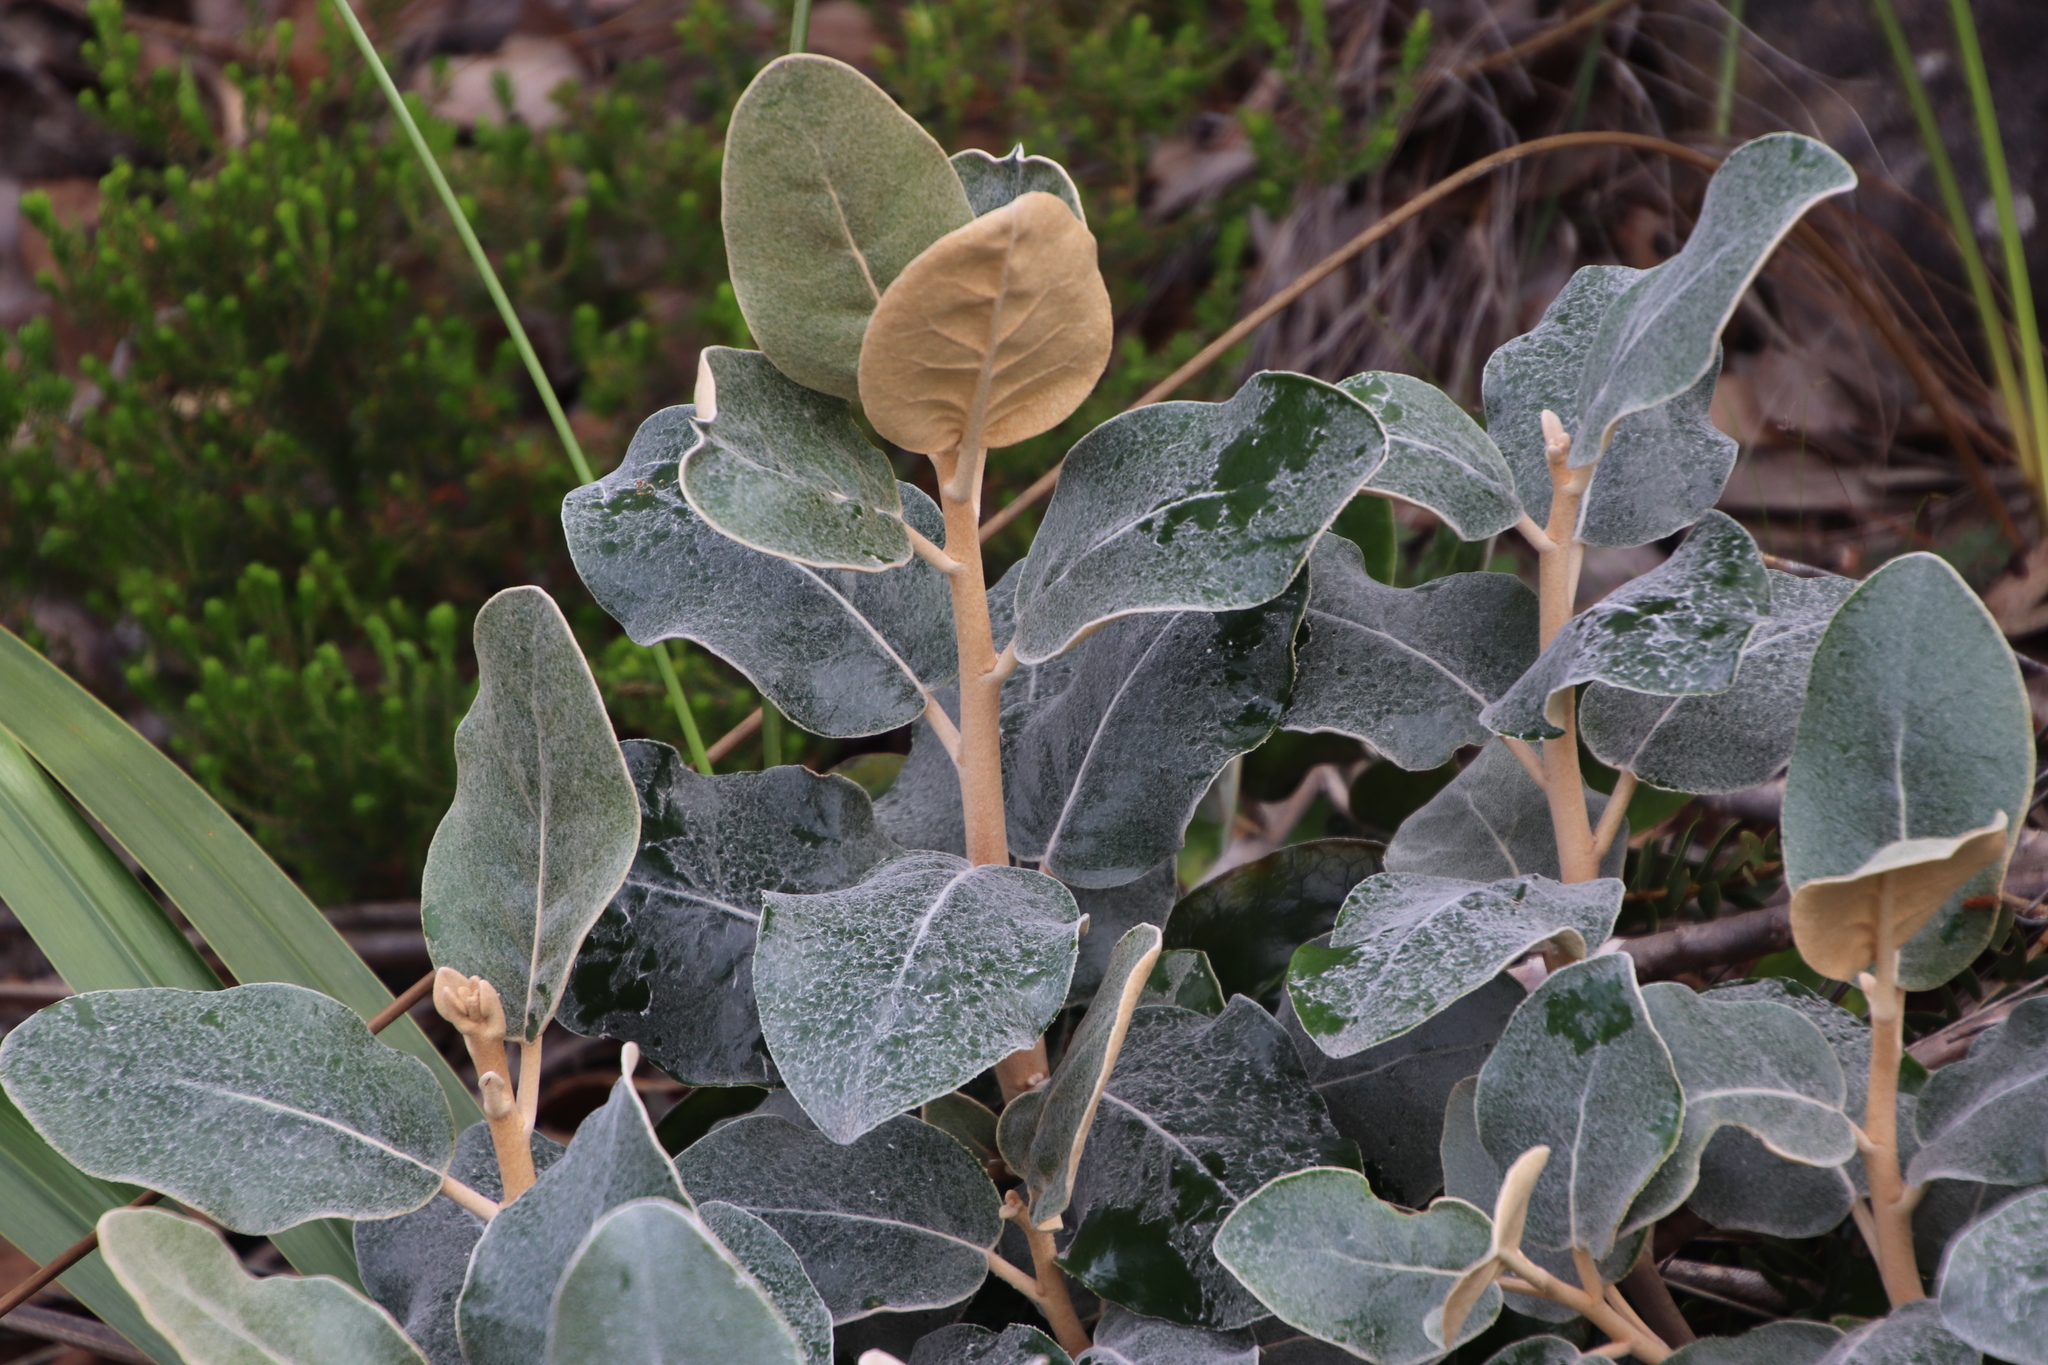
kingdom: Plantae
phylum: Tracheophyta
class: Magnoliopsida
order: Asterales
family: Asteraceae
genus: Capelio
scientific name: Capelio tabularis
